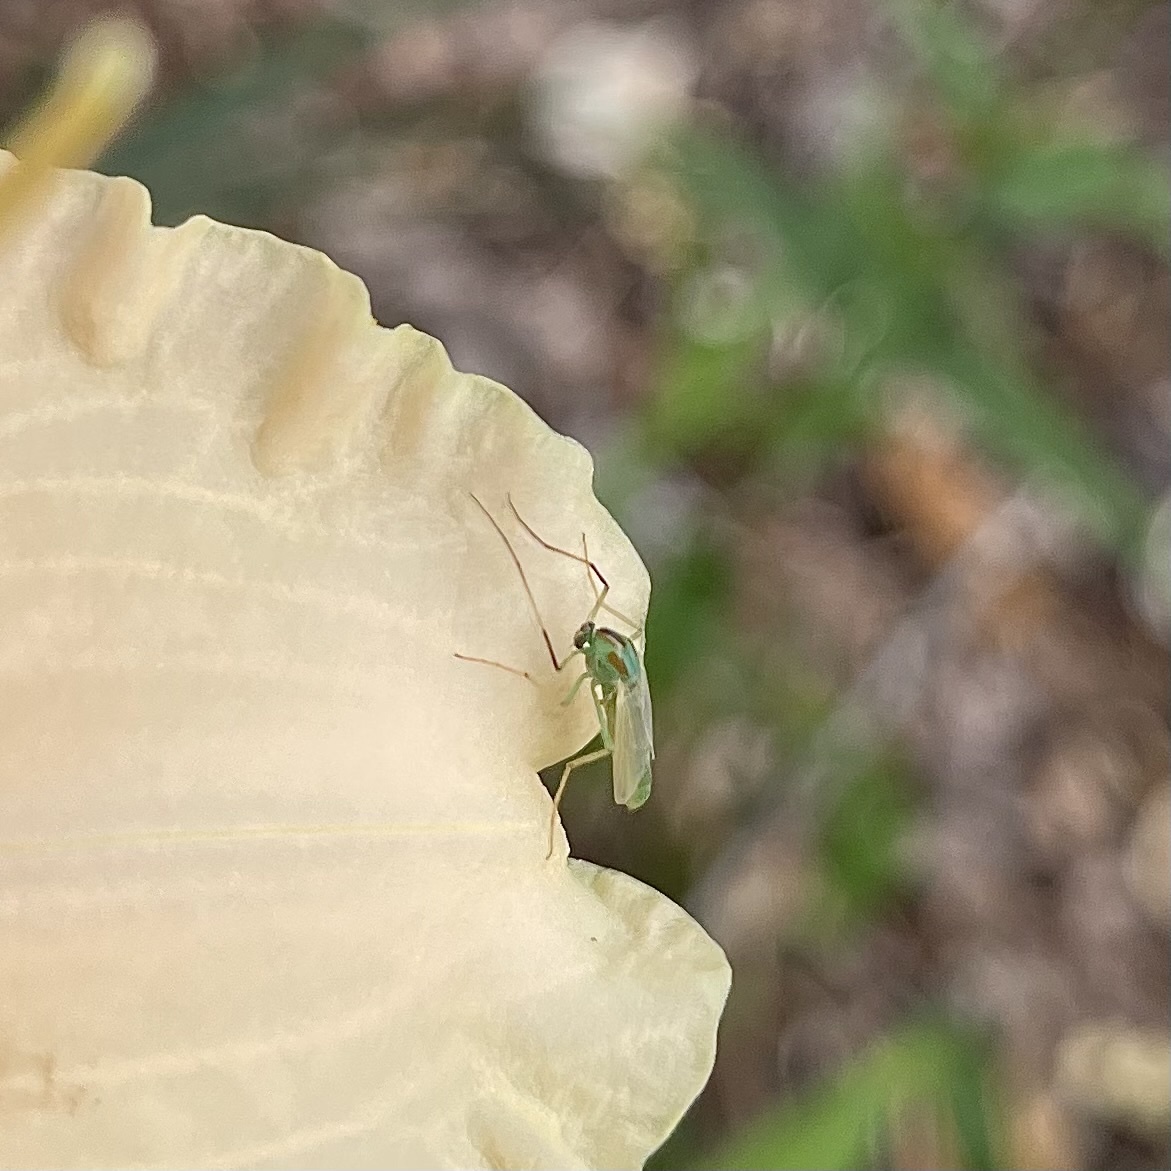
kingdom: Animalia
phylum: Arthropoda
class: Insecta
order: Diptera
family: Chironomidae
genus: Axarus
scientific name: Axarus
